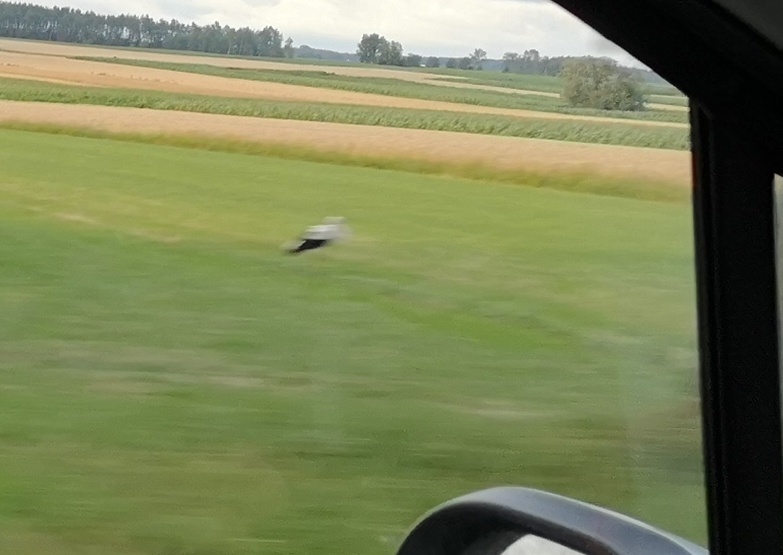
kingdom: Animalia
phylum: Chordata
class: Aves
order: Ciconiiformes
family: Ciconiidae
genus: Ciconia
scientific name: Ciconia ciconia
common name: White stork
